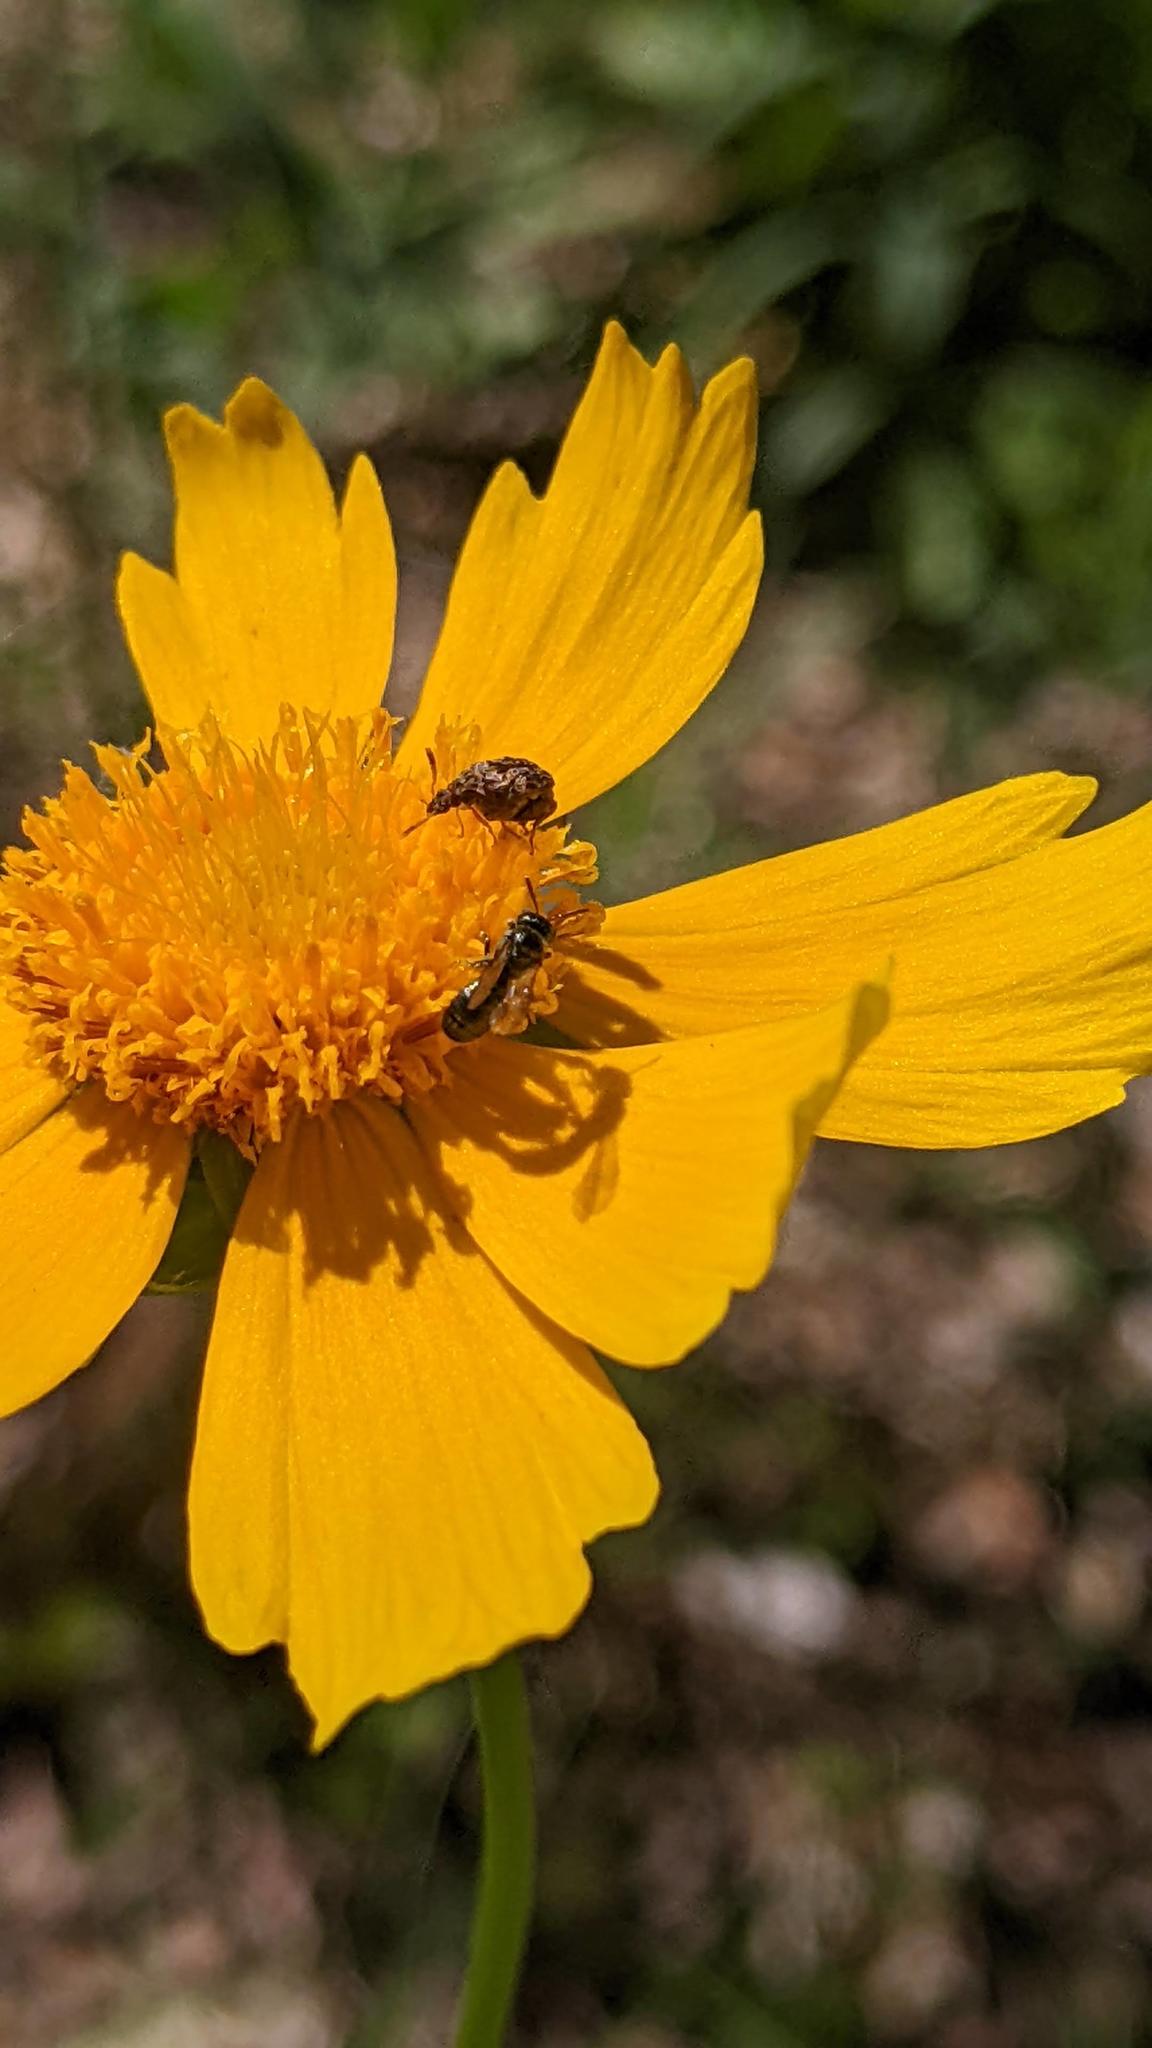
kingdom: Animalia
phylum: Arthropoda
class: Insecta
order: Hymenoptera
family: Apidae
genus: Zadontomerus
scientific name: Zadontomerus
